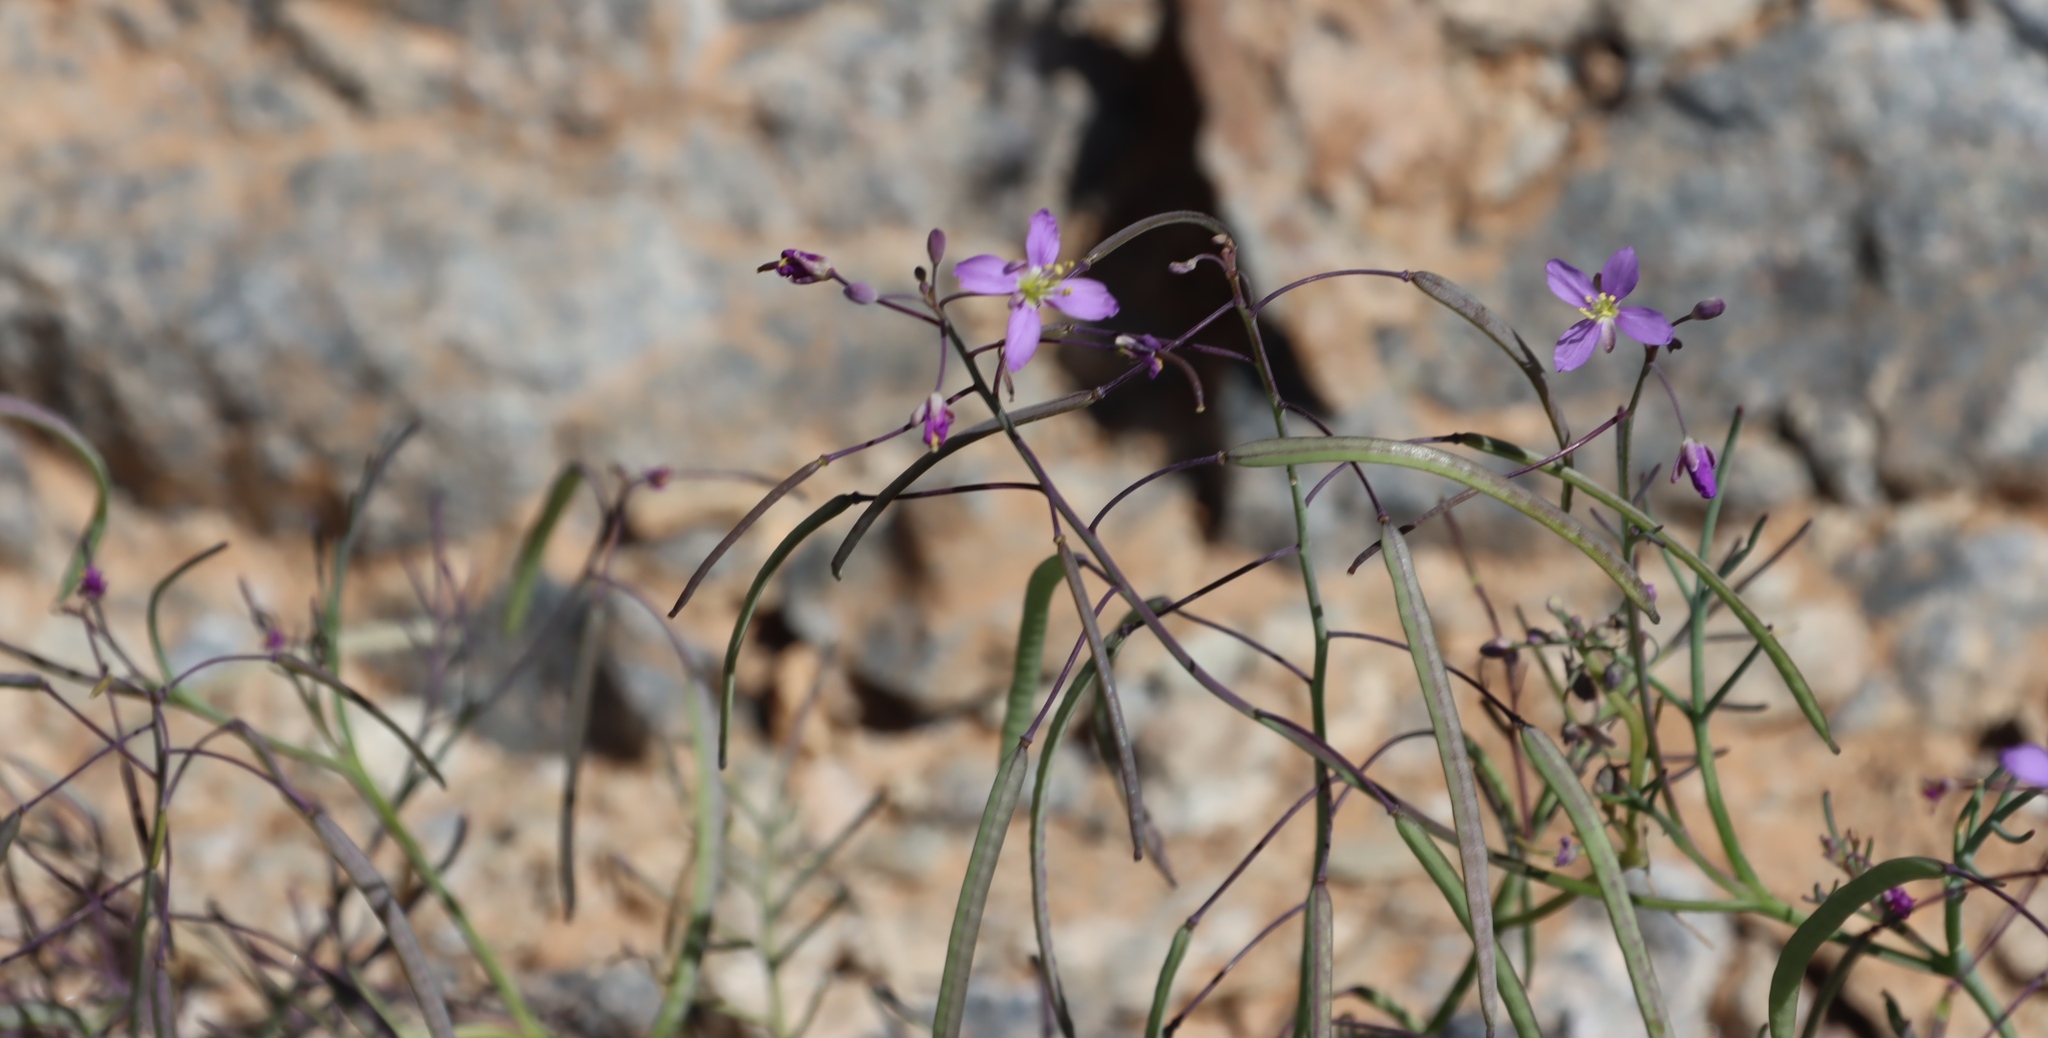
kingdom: Plantae
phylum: Tracheophyta
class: Magnoliopsida
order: Brassicales
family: Brassicaceae
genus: Heliophila
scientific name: Heliophila deserticola
